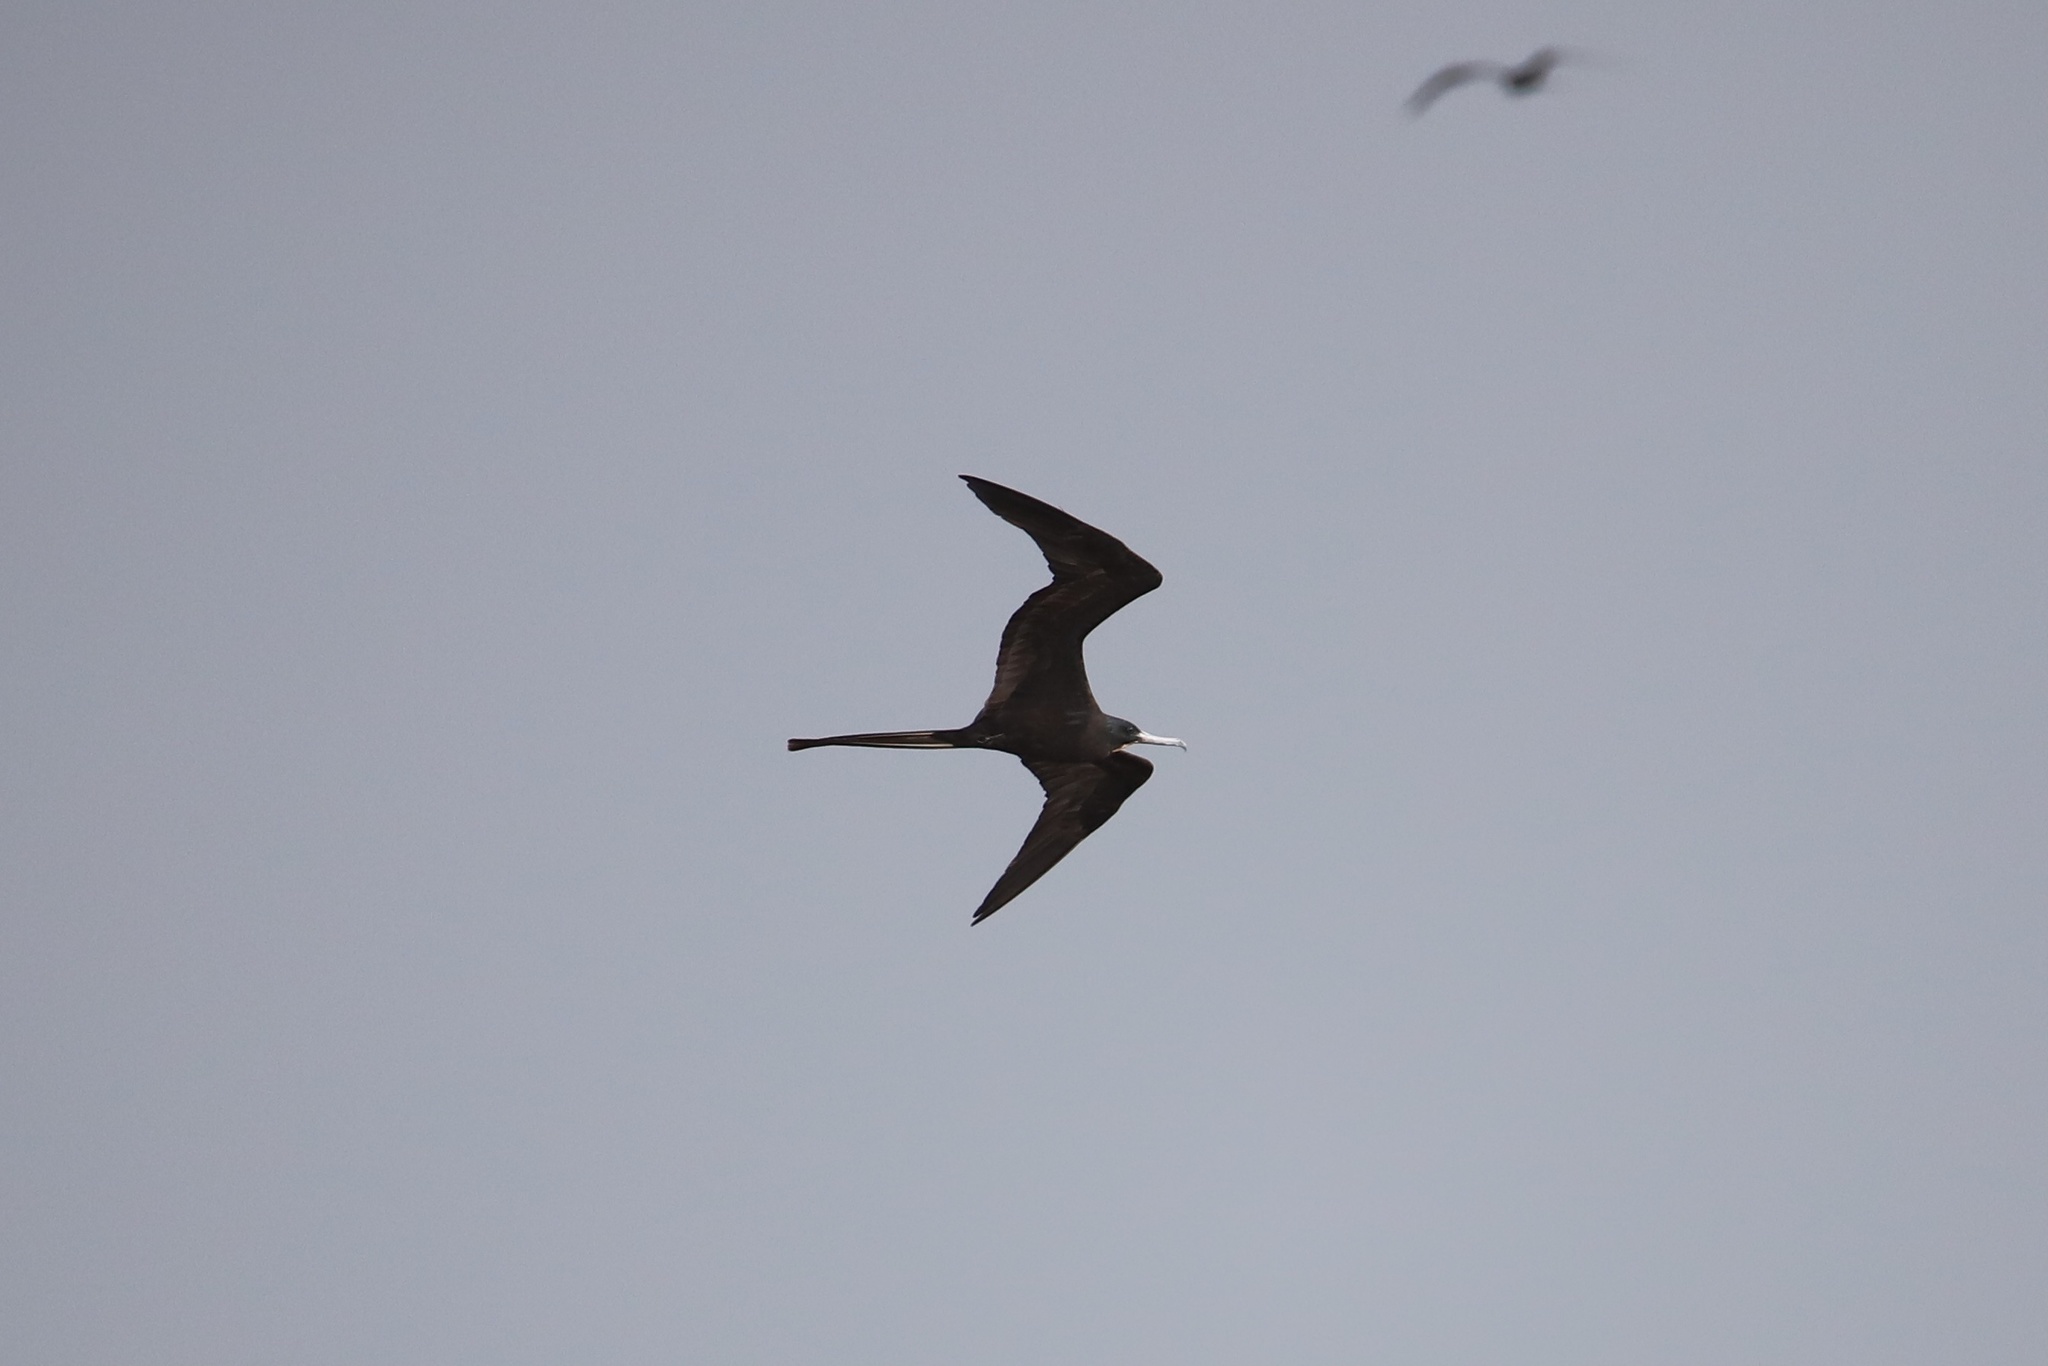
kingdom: Animalia
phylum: Chordata
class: Aves
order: Suliformes
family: Fregatidae
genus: Fregata
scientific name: Fregata magnificens
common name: Magnificent frigatebird
